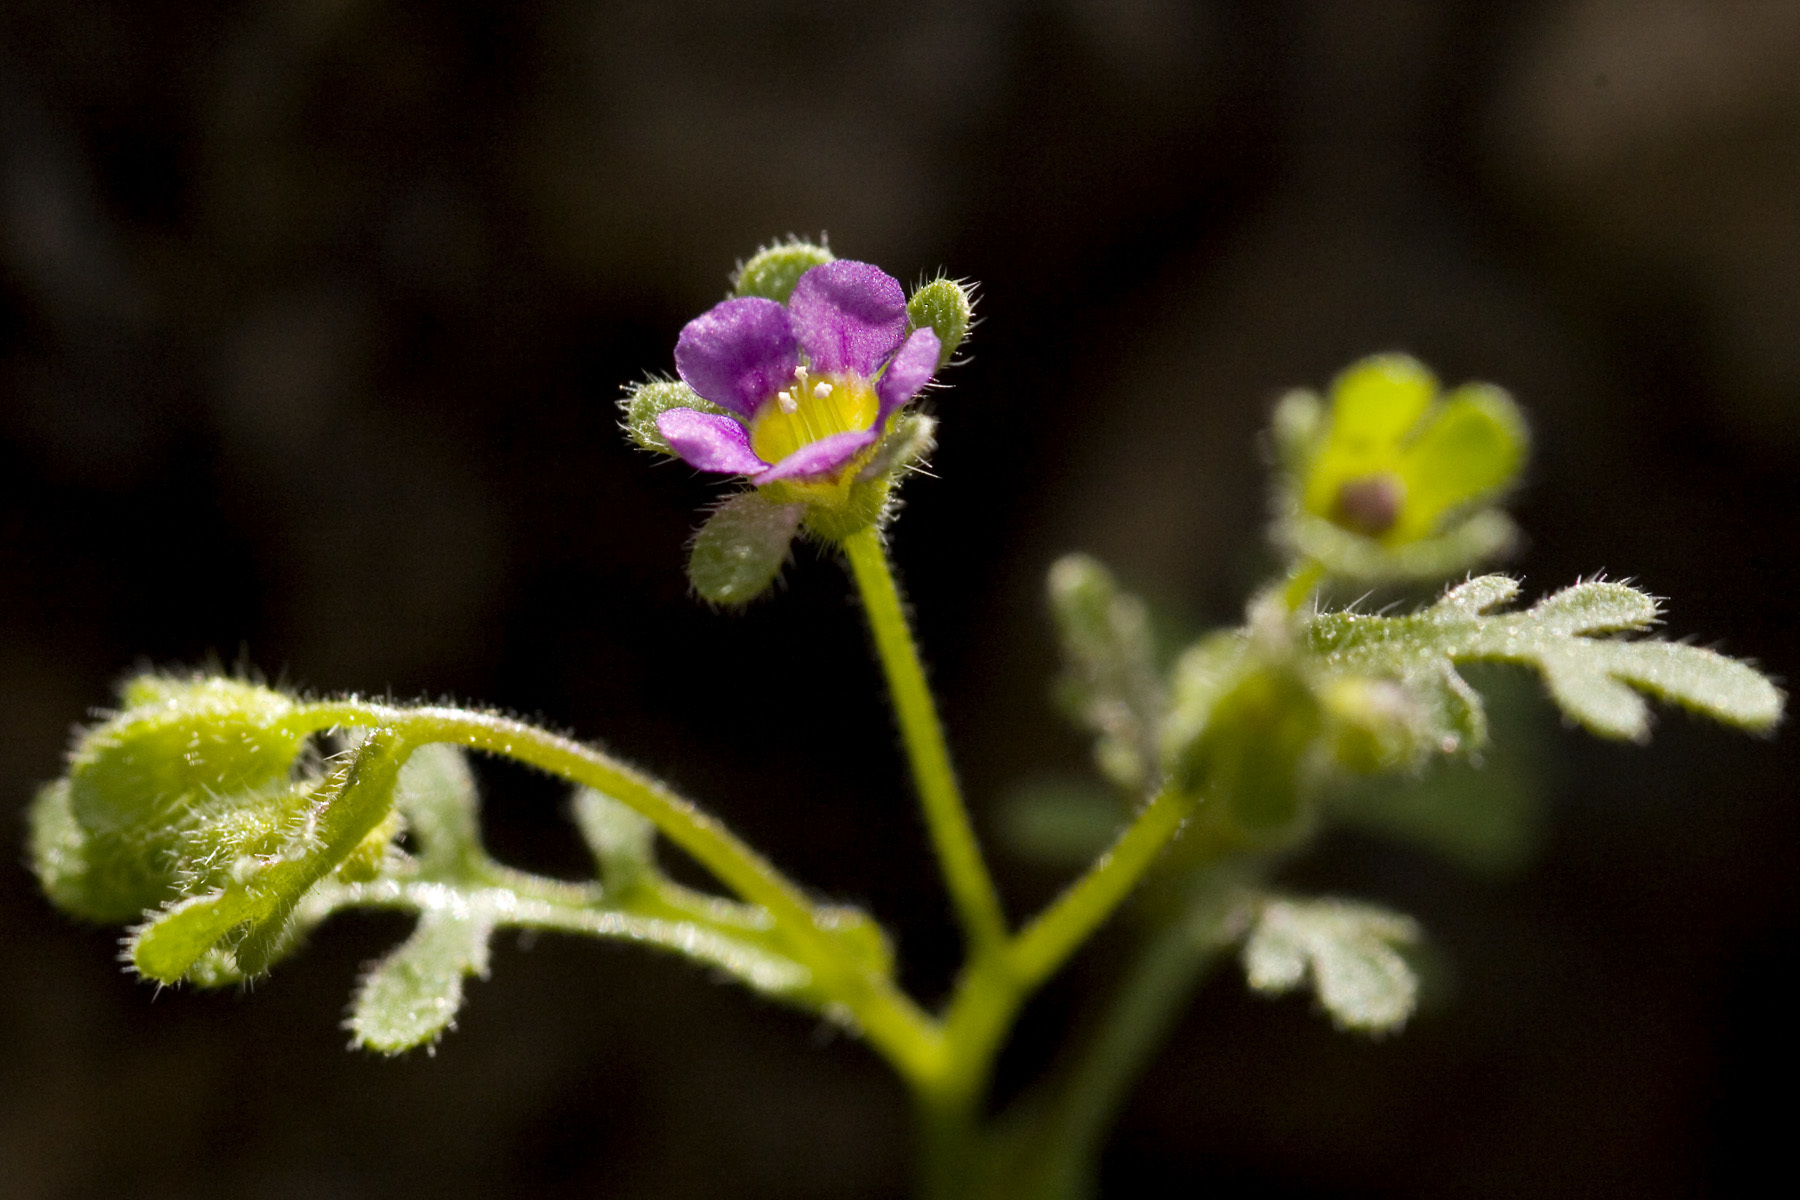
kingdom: Plantae
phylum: Tracheophyta
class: Magnoliopsida
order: Boraginales
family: Hydrophyllaceae
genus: Eucrypta
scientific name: Eucrypta micrantha
